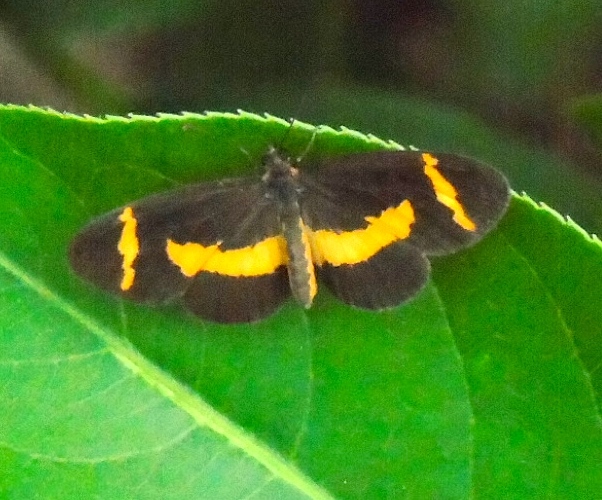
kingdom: Animalia
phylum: Arthropoda
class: Insecta
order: Lepidoptera
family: Nymphalidae
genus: Microtia
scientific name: Microtia elva
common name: Elf
